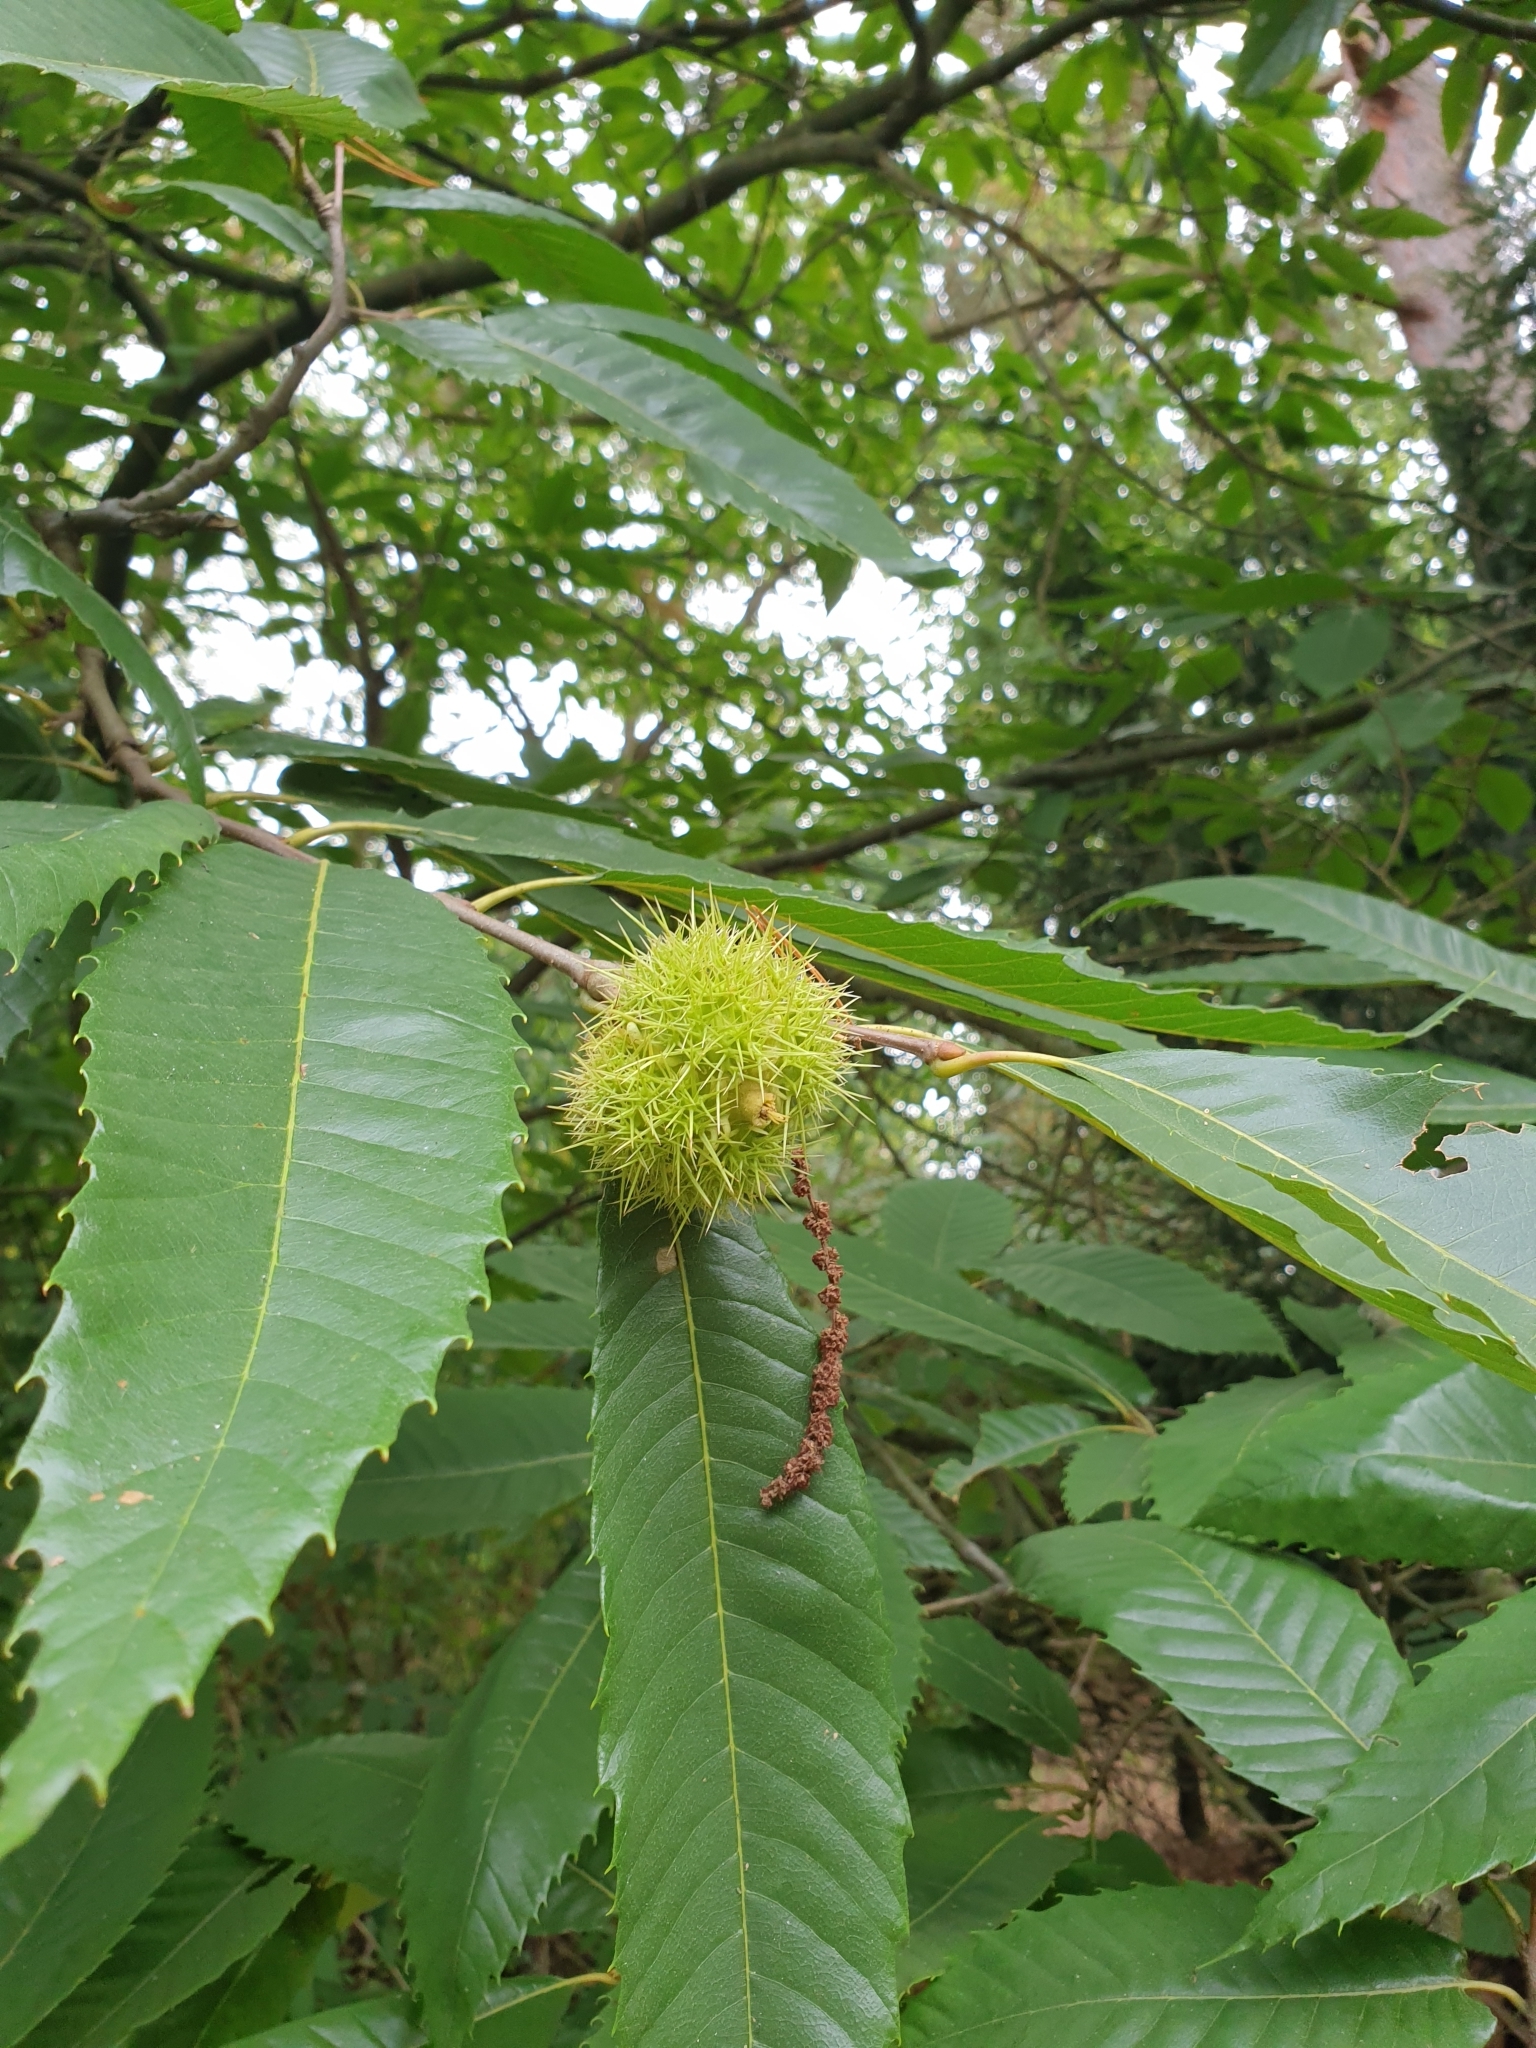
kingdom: Plantae
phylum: Tracheophyta
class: Magnoliopsida
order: Fagales
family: Fagaceae
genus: Castanea
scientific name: Castanea sativa
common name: Sweet chestnut
